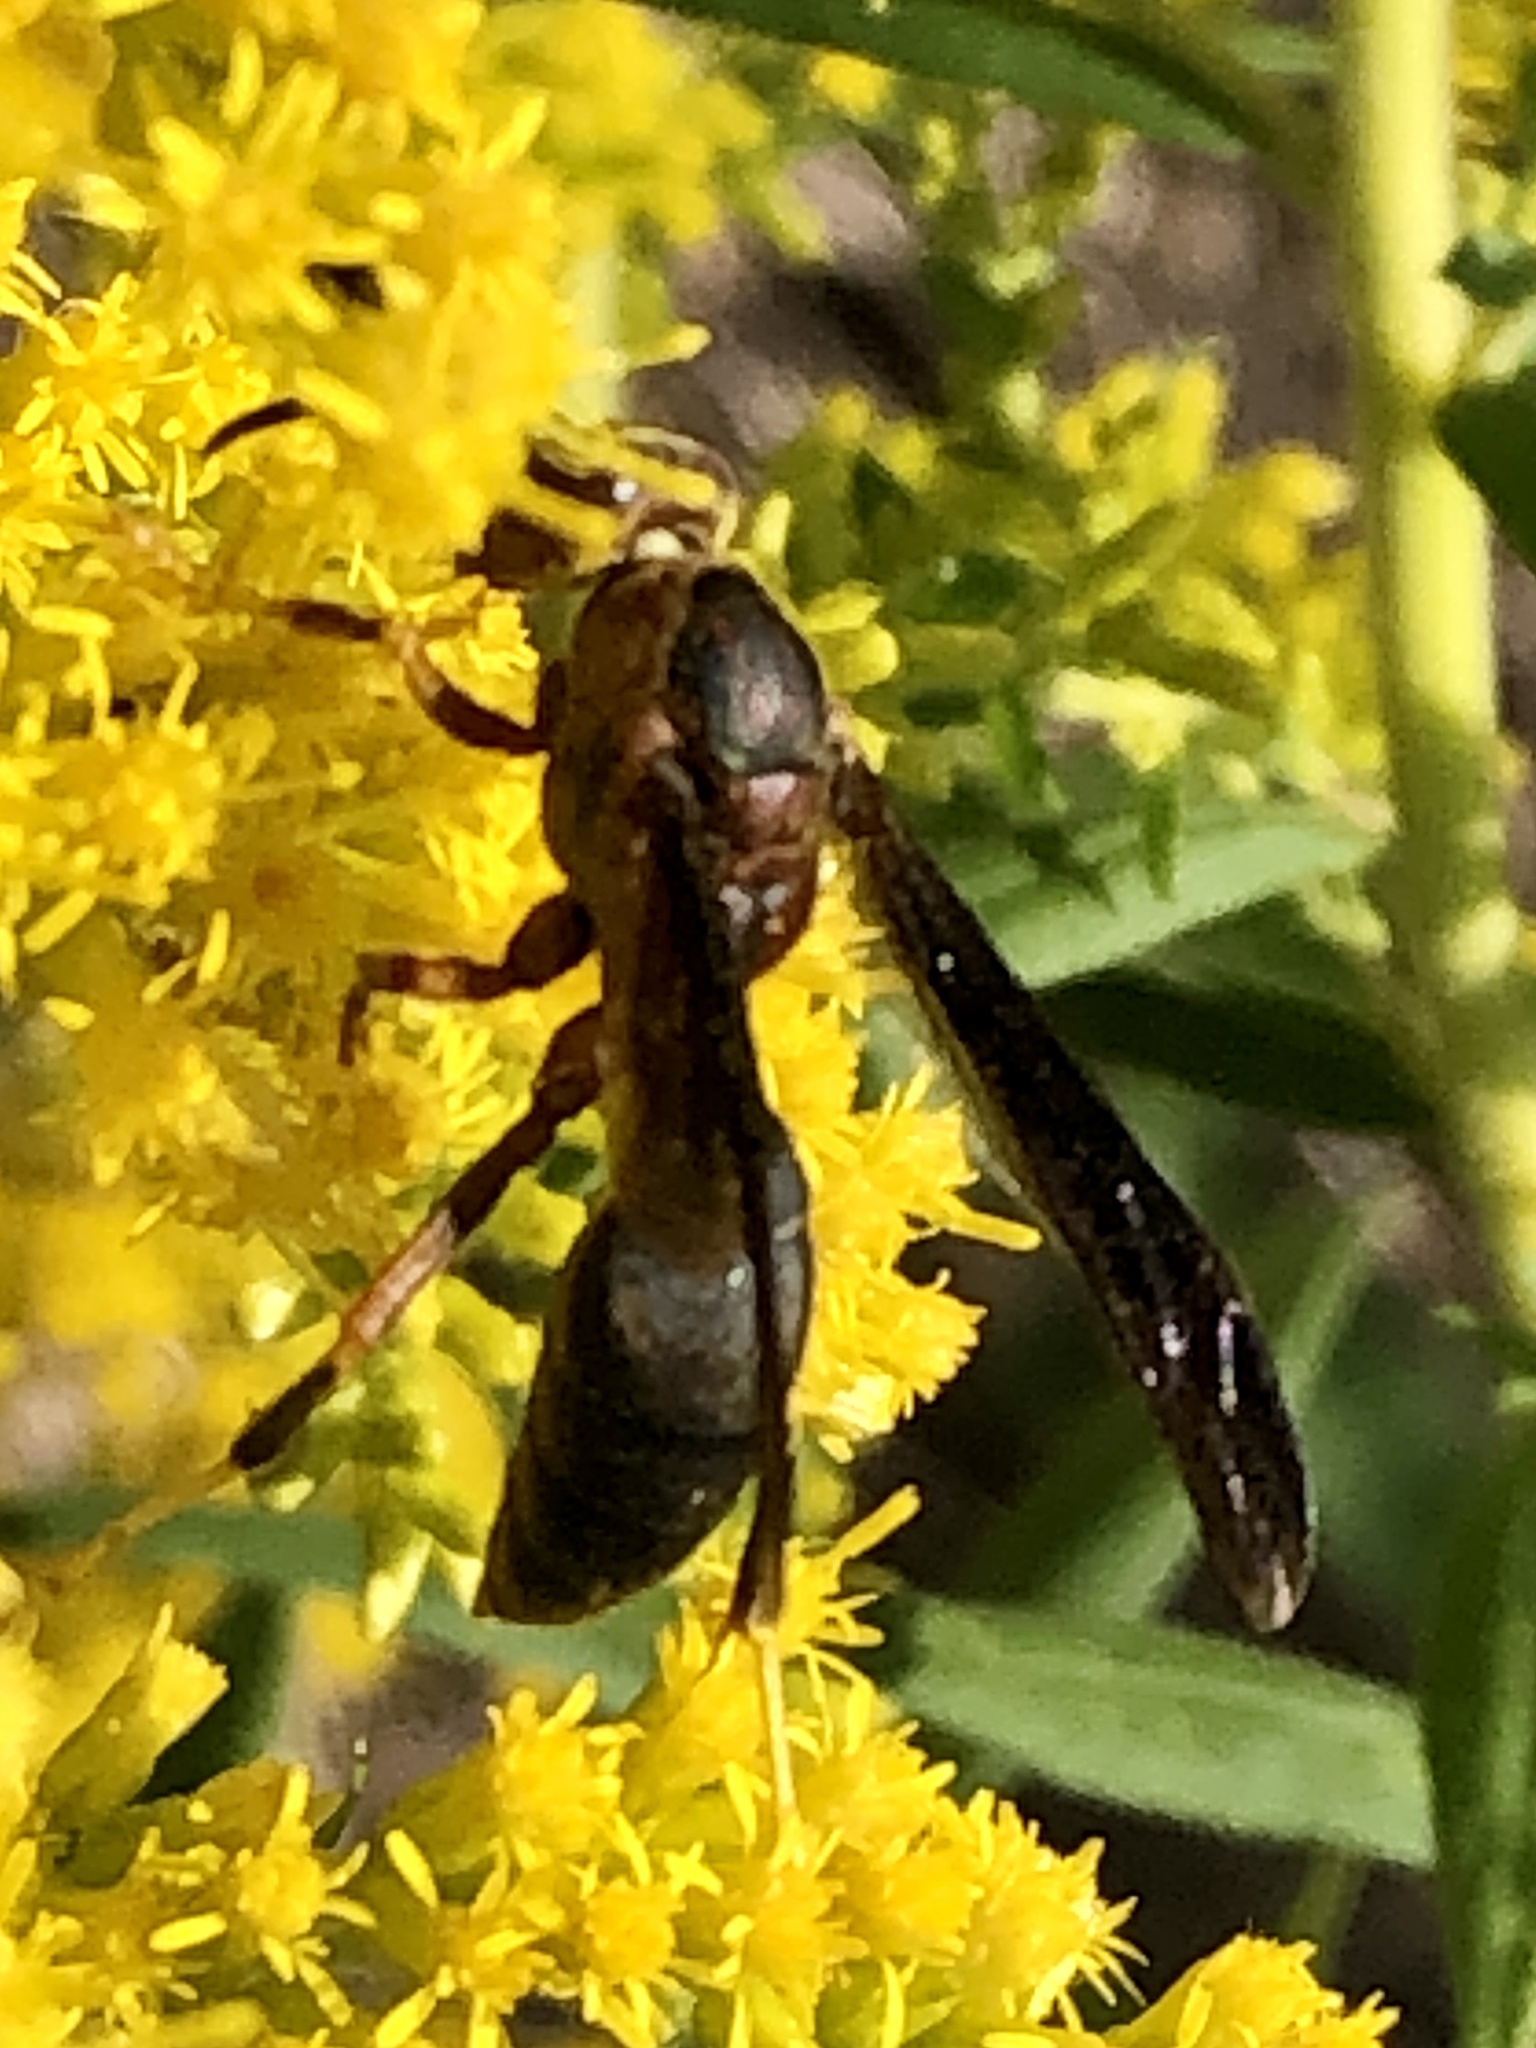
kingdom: Animalia
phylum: Arthropoda
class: Insecta
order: Hymenoptera
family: Eumenidae
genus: Polistes
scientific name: Polistes metricus
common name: Metric paper wasp
